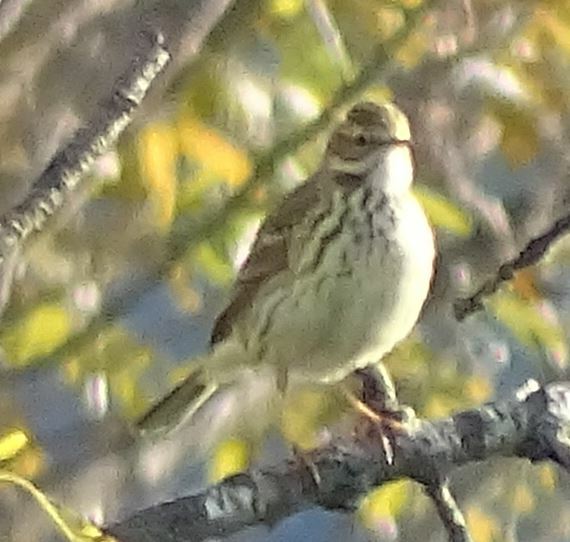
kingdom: Animalia
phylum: Chordata
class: Aves
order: Passeriformes
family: Motacillidae
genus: Anthus
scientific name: Anthus pratensis
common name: Meadow pipit
